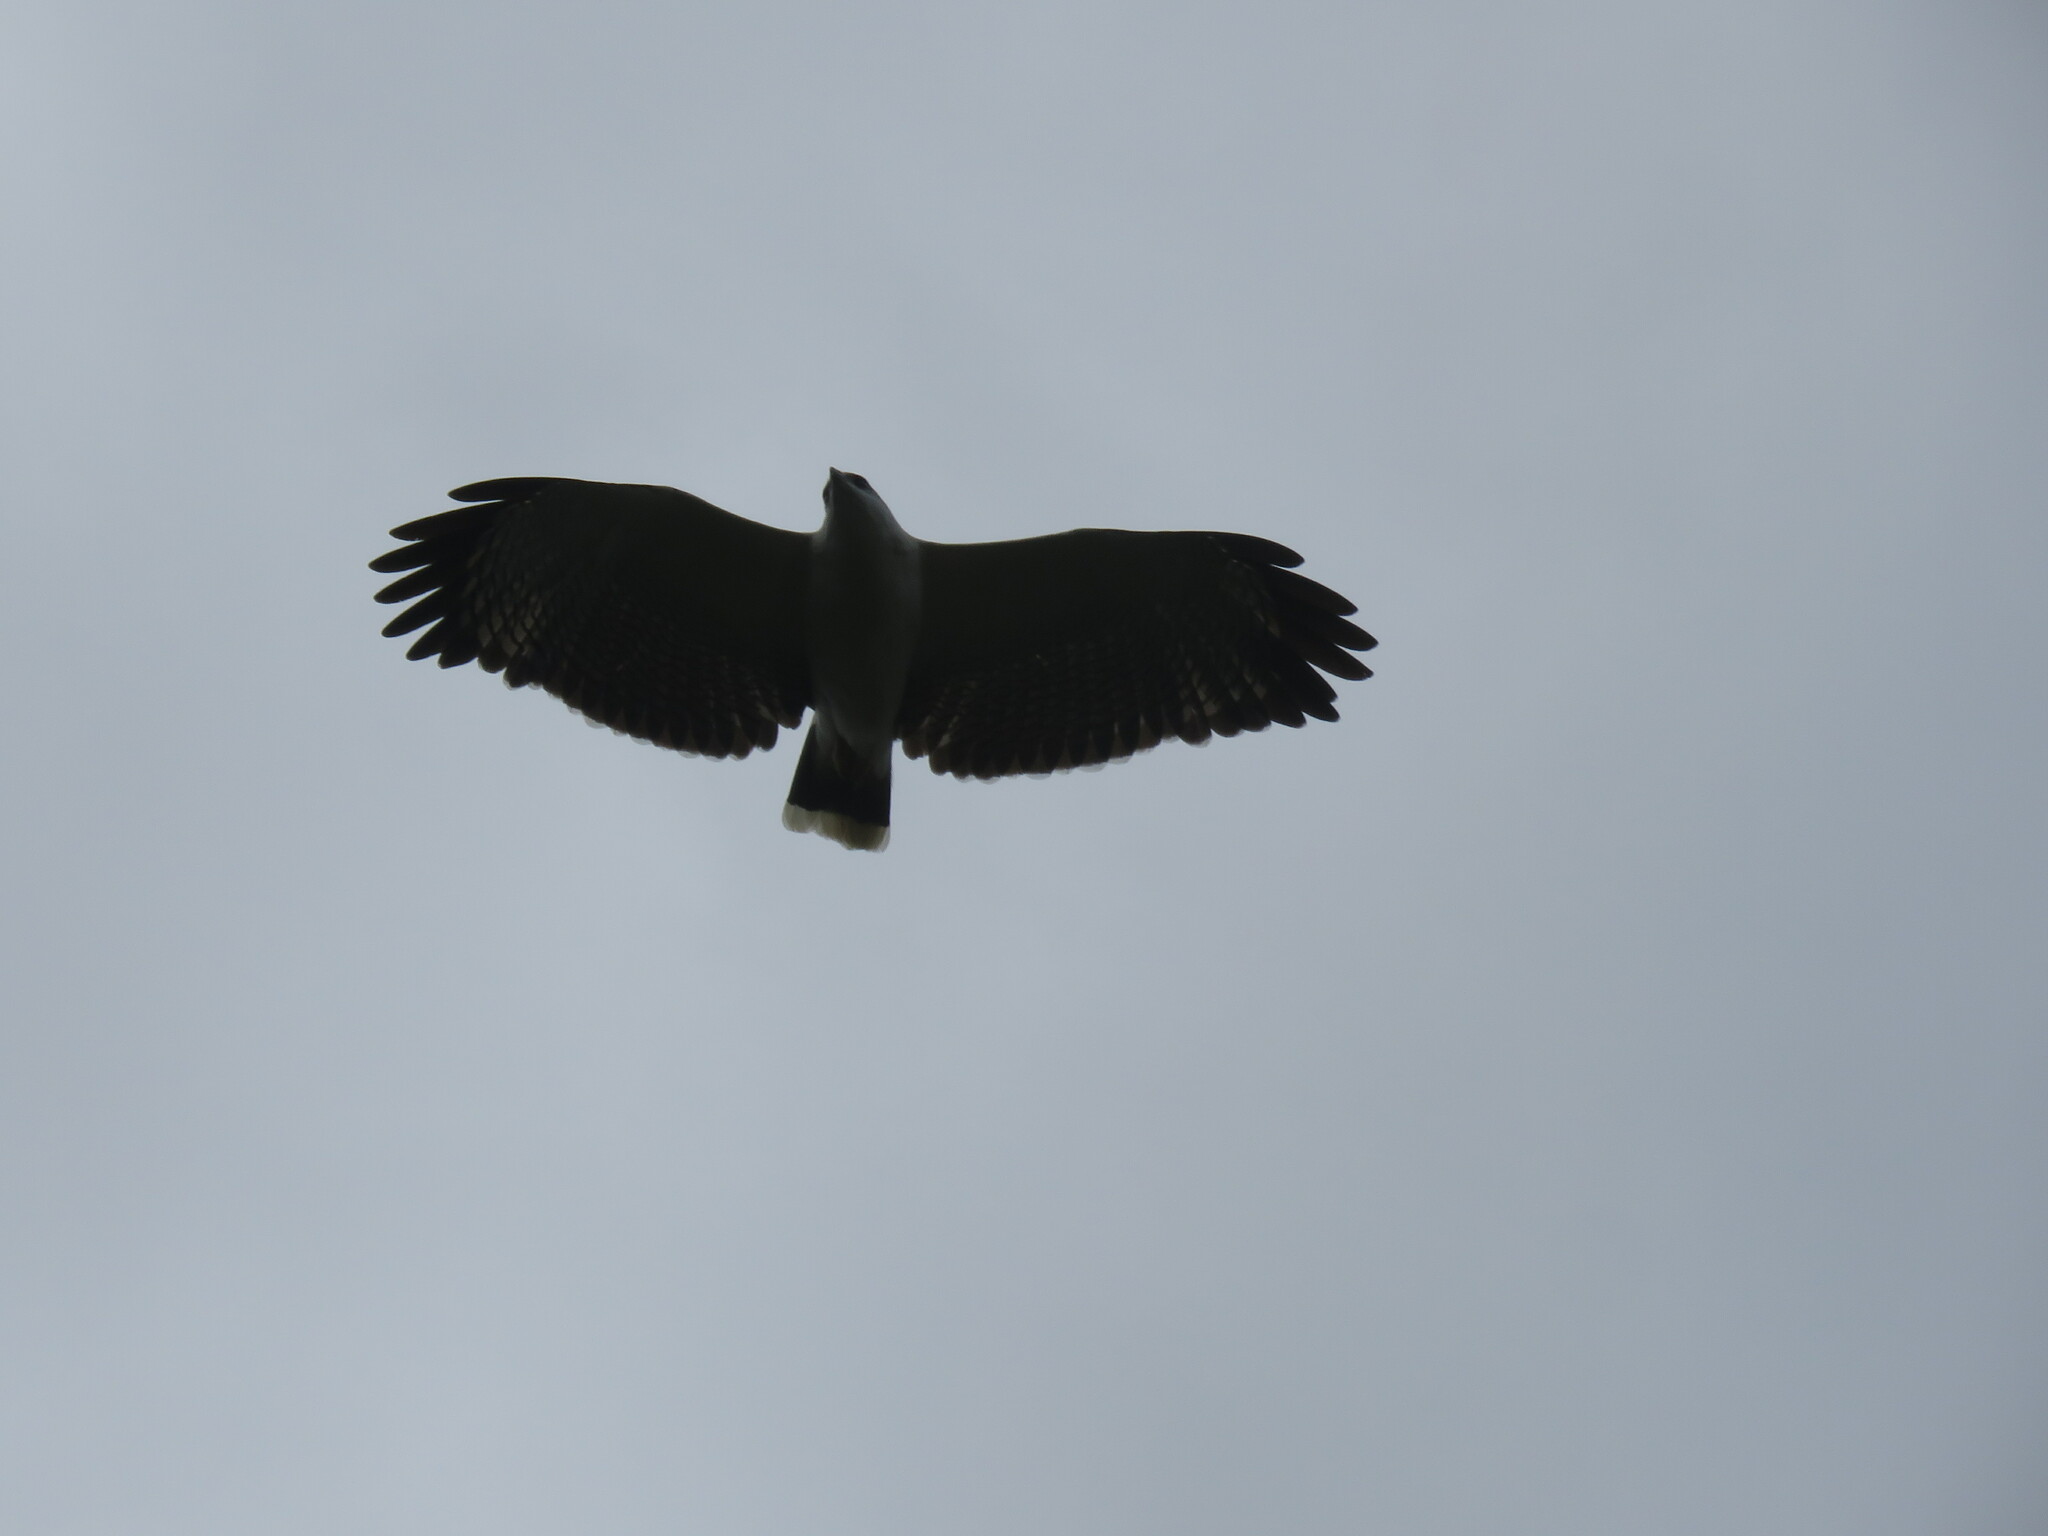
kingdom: Animalia
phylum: Chordata
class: Aves
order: Accipitriformes
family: Accipitridae
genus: Leucopternis
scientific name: Leucopternis albicollis
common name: White hawk
